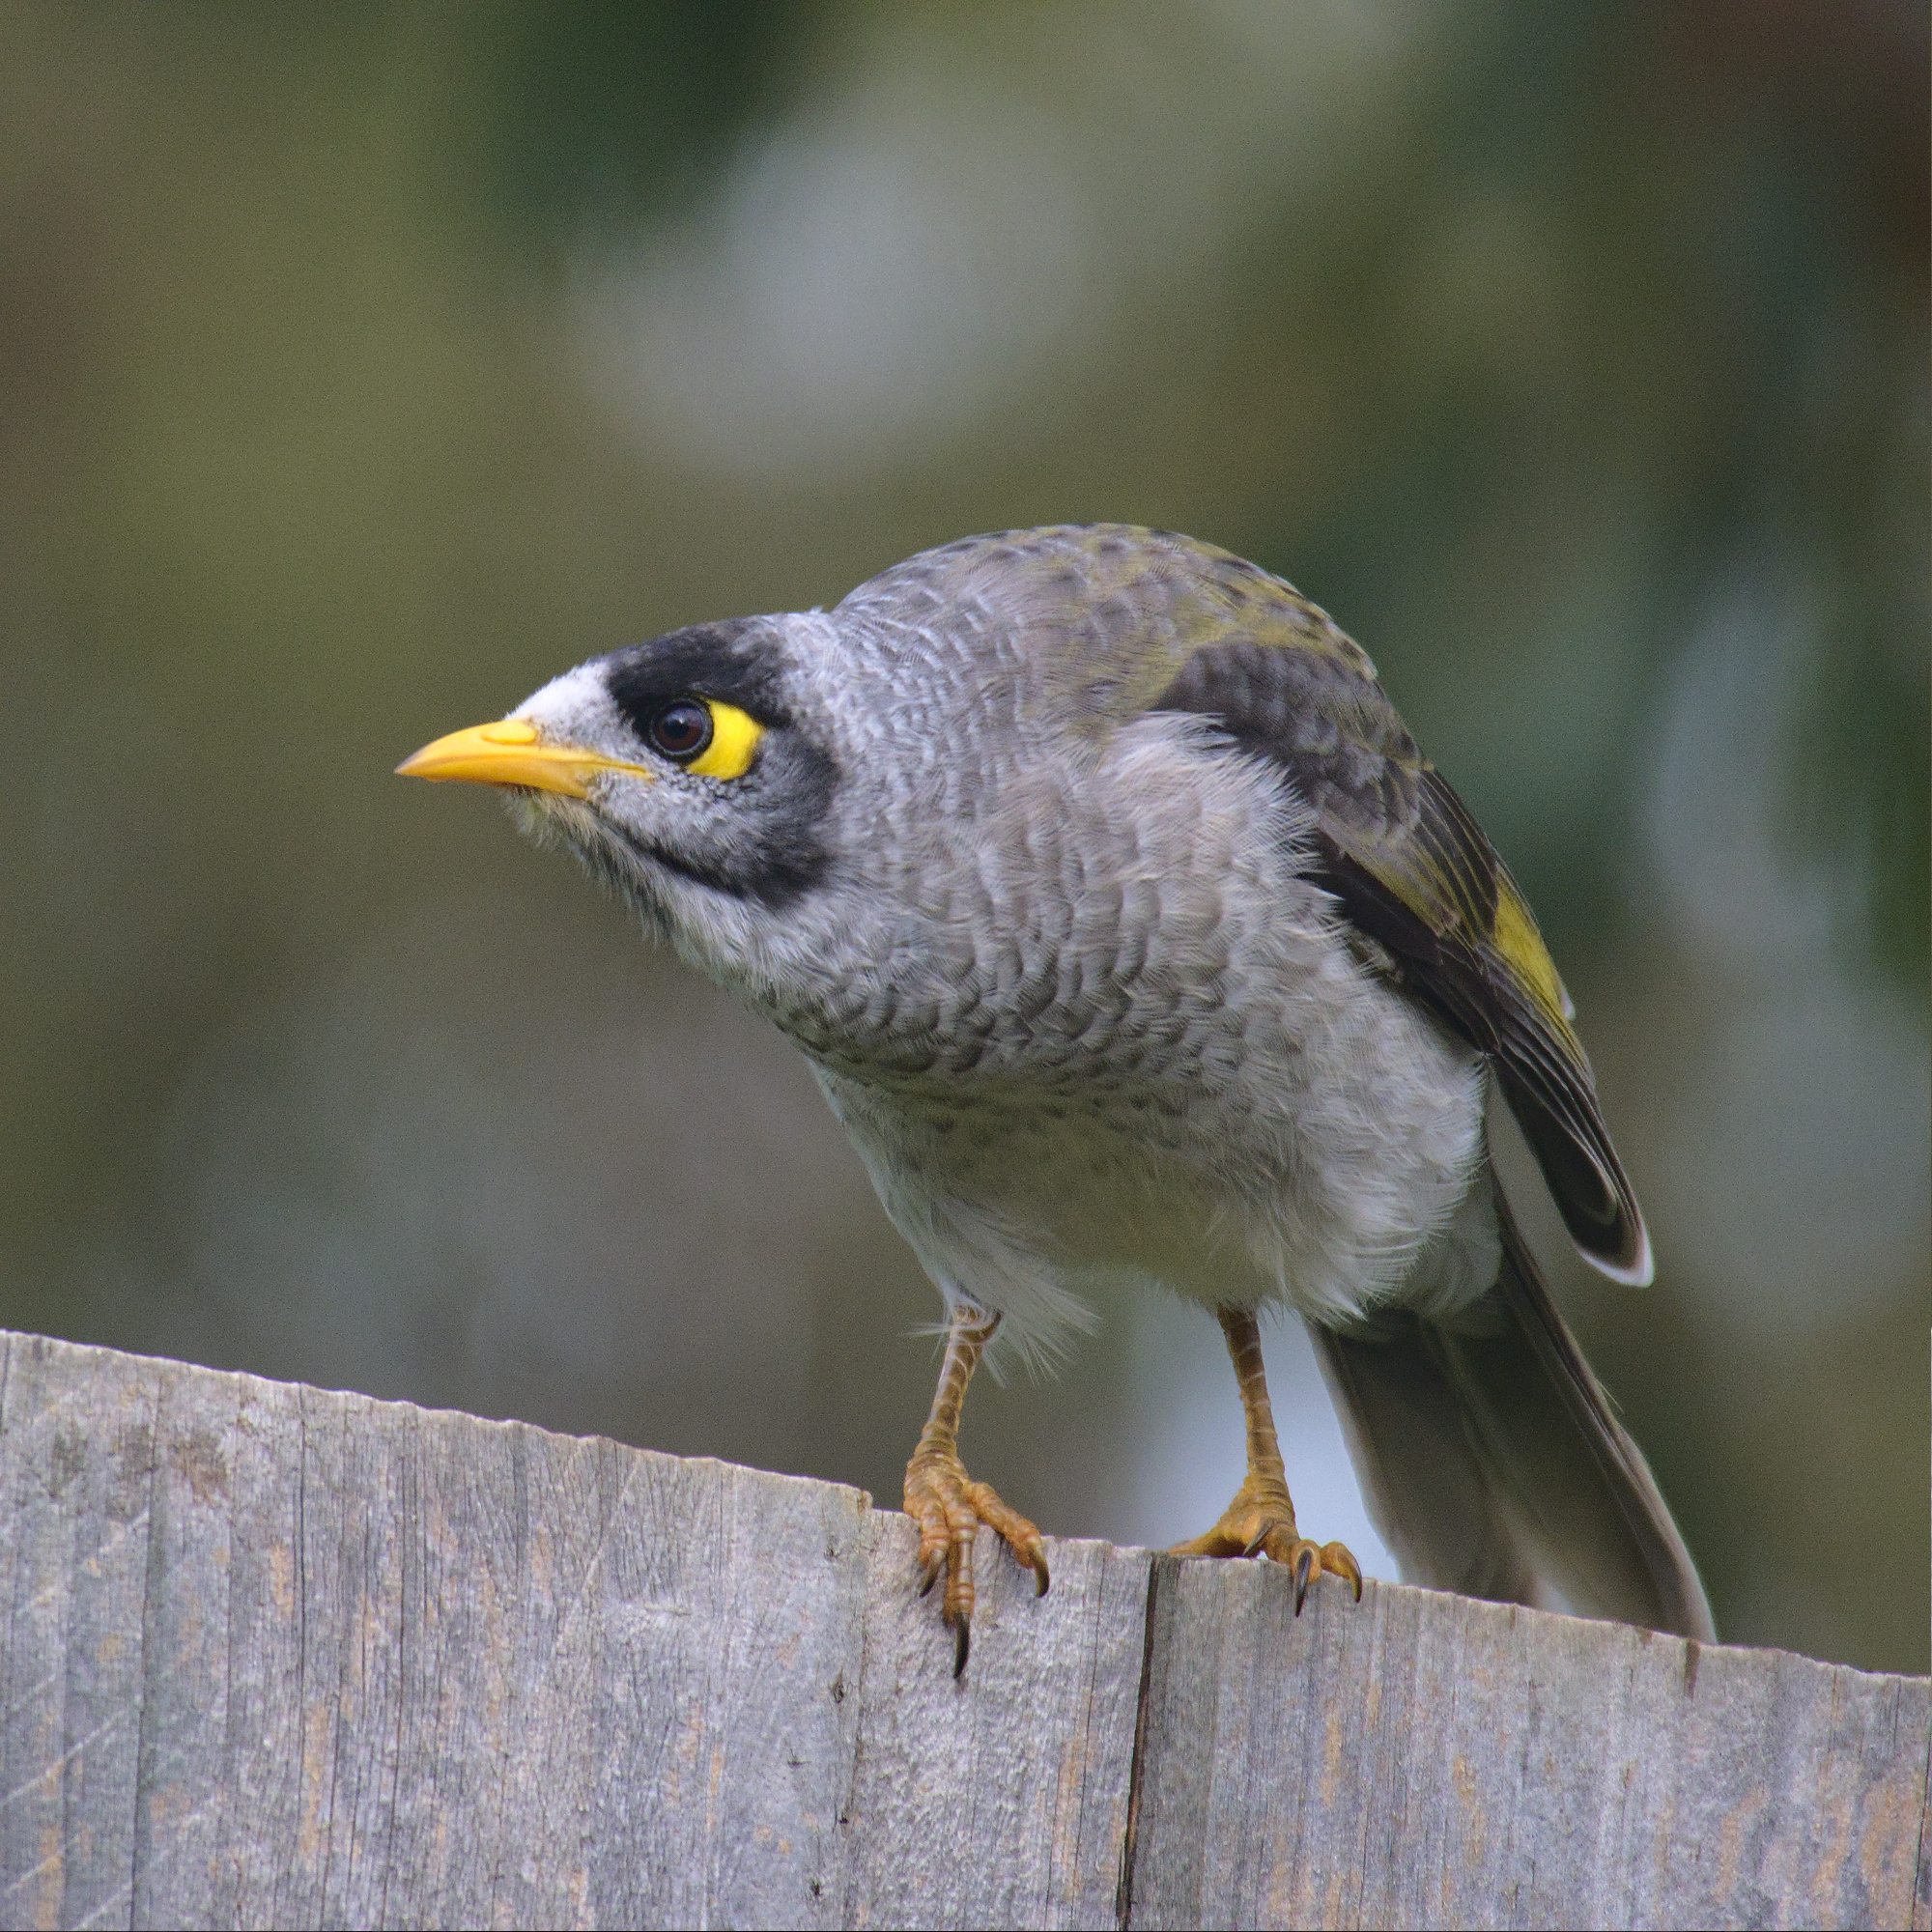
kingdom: Animalia
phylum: Chordata
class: Aves
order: Passeriformes
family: Meliphagidae
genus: Manorina
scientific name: Manorina melanocephala
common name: Noisy miner
